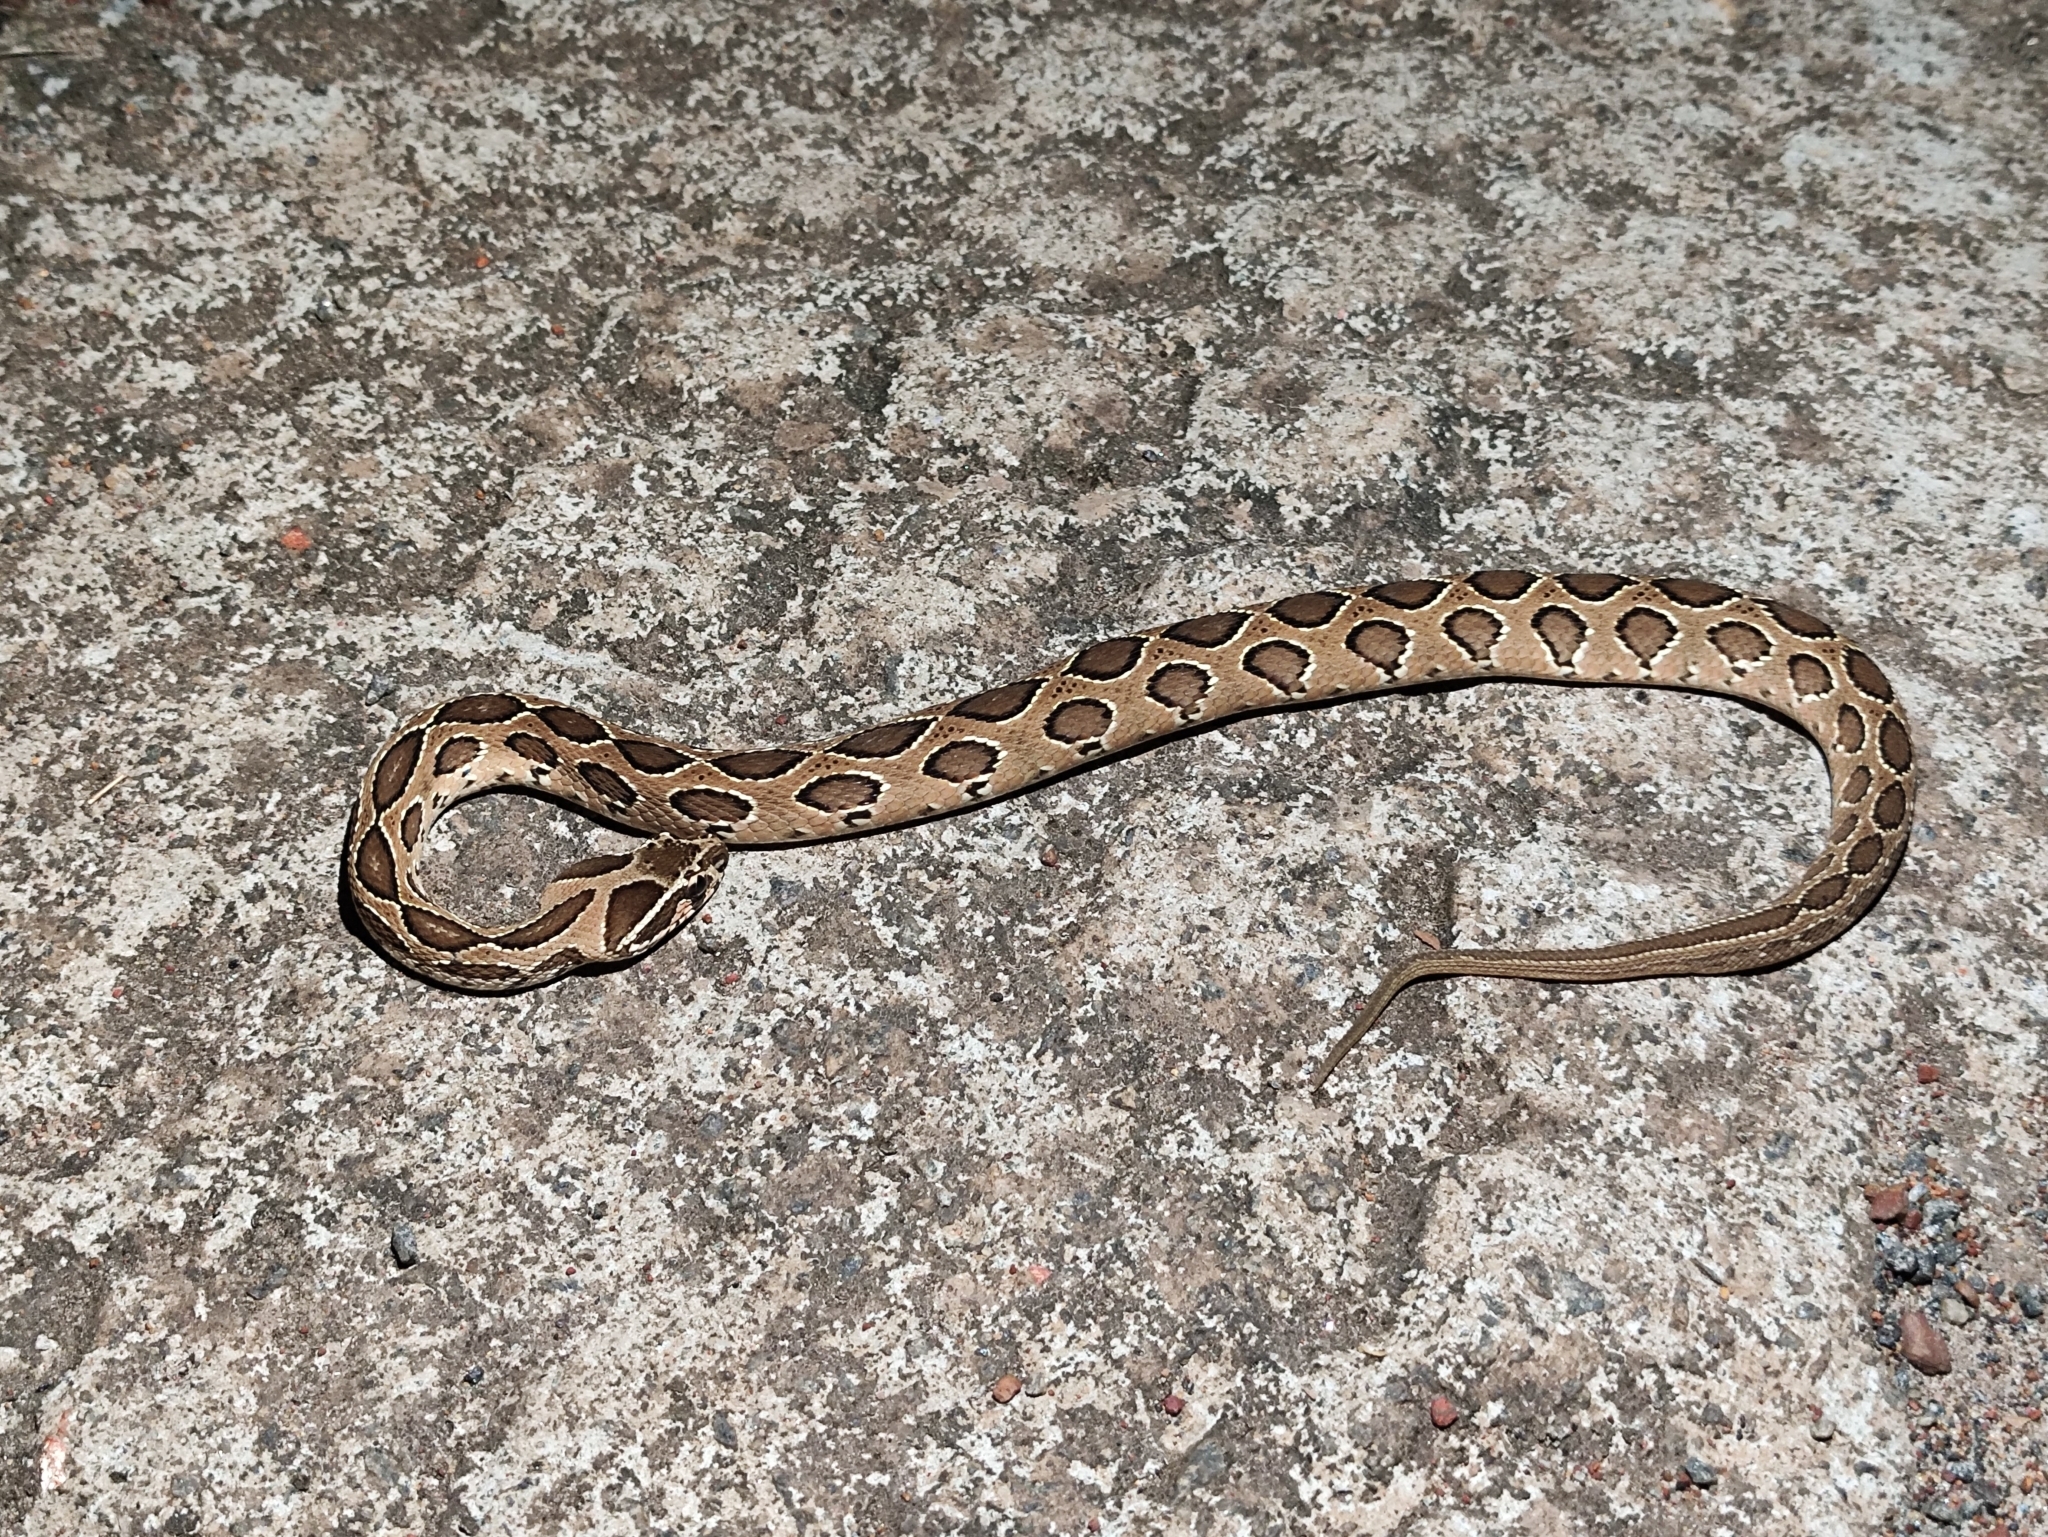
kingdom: Animalia
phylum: Chordata
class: Squamata
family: Viperidae
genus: Daboia
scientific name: Daboia russelii
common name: Western russel’s viper
